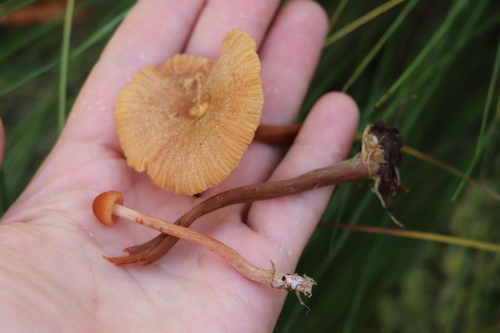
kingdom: Fungi
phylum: Basidiomycota
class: Agaricomycetes
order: Agaricales
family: Hydnangiaceae
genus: Laccaria
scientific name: Laccaria laccata
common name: Deceiver
